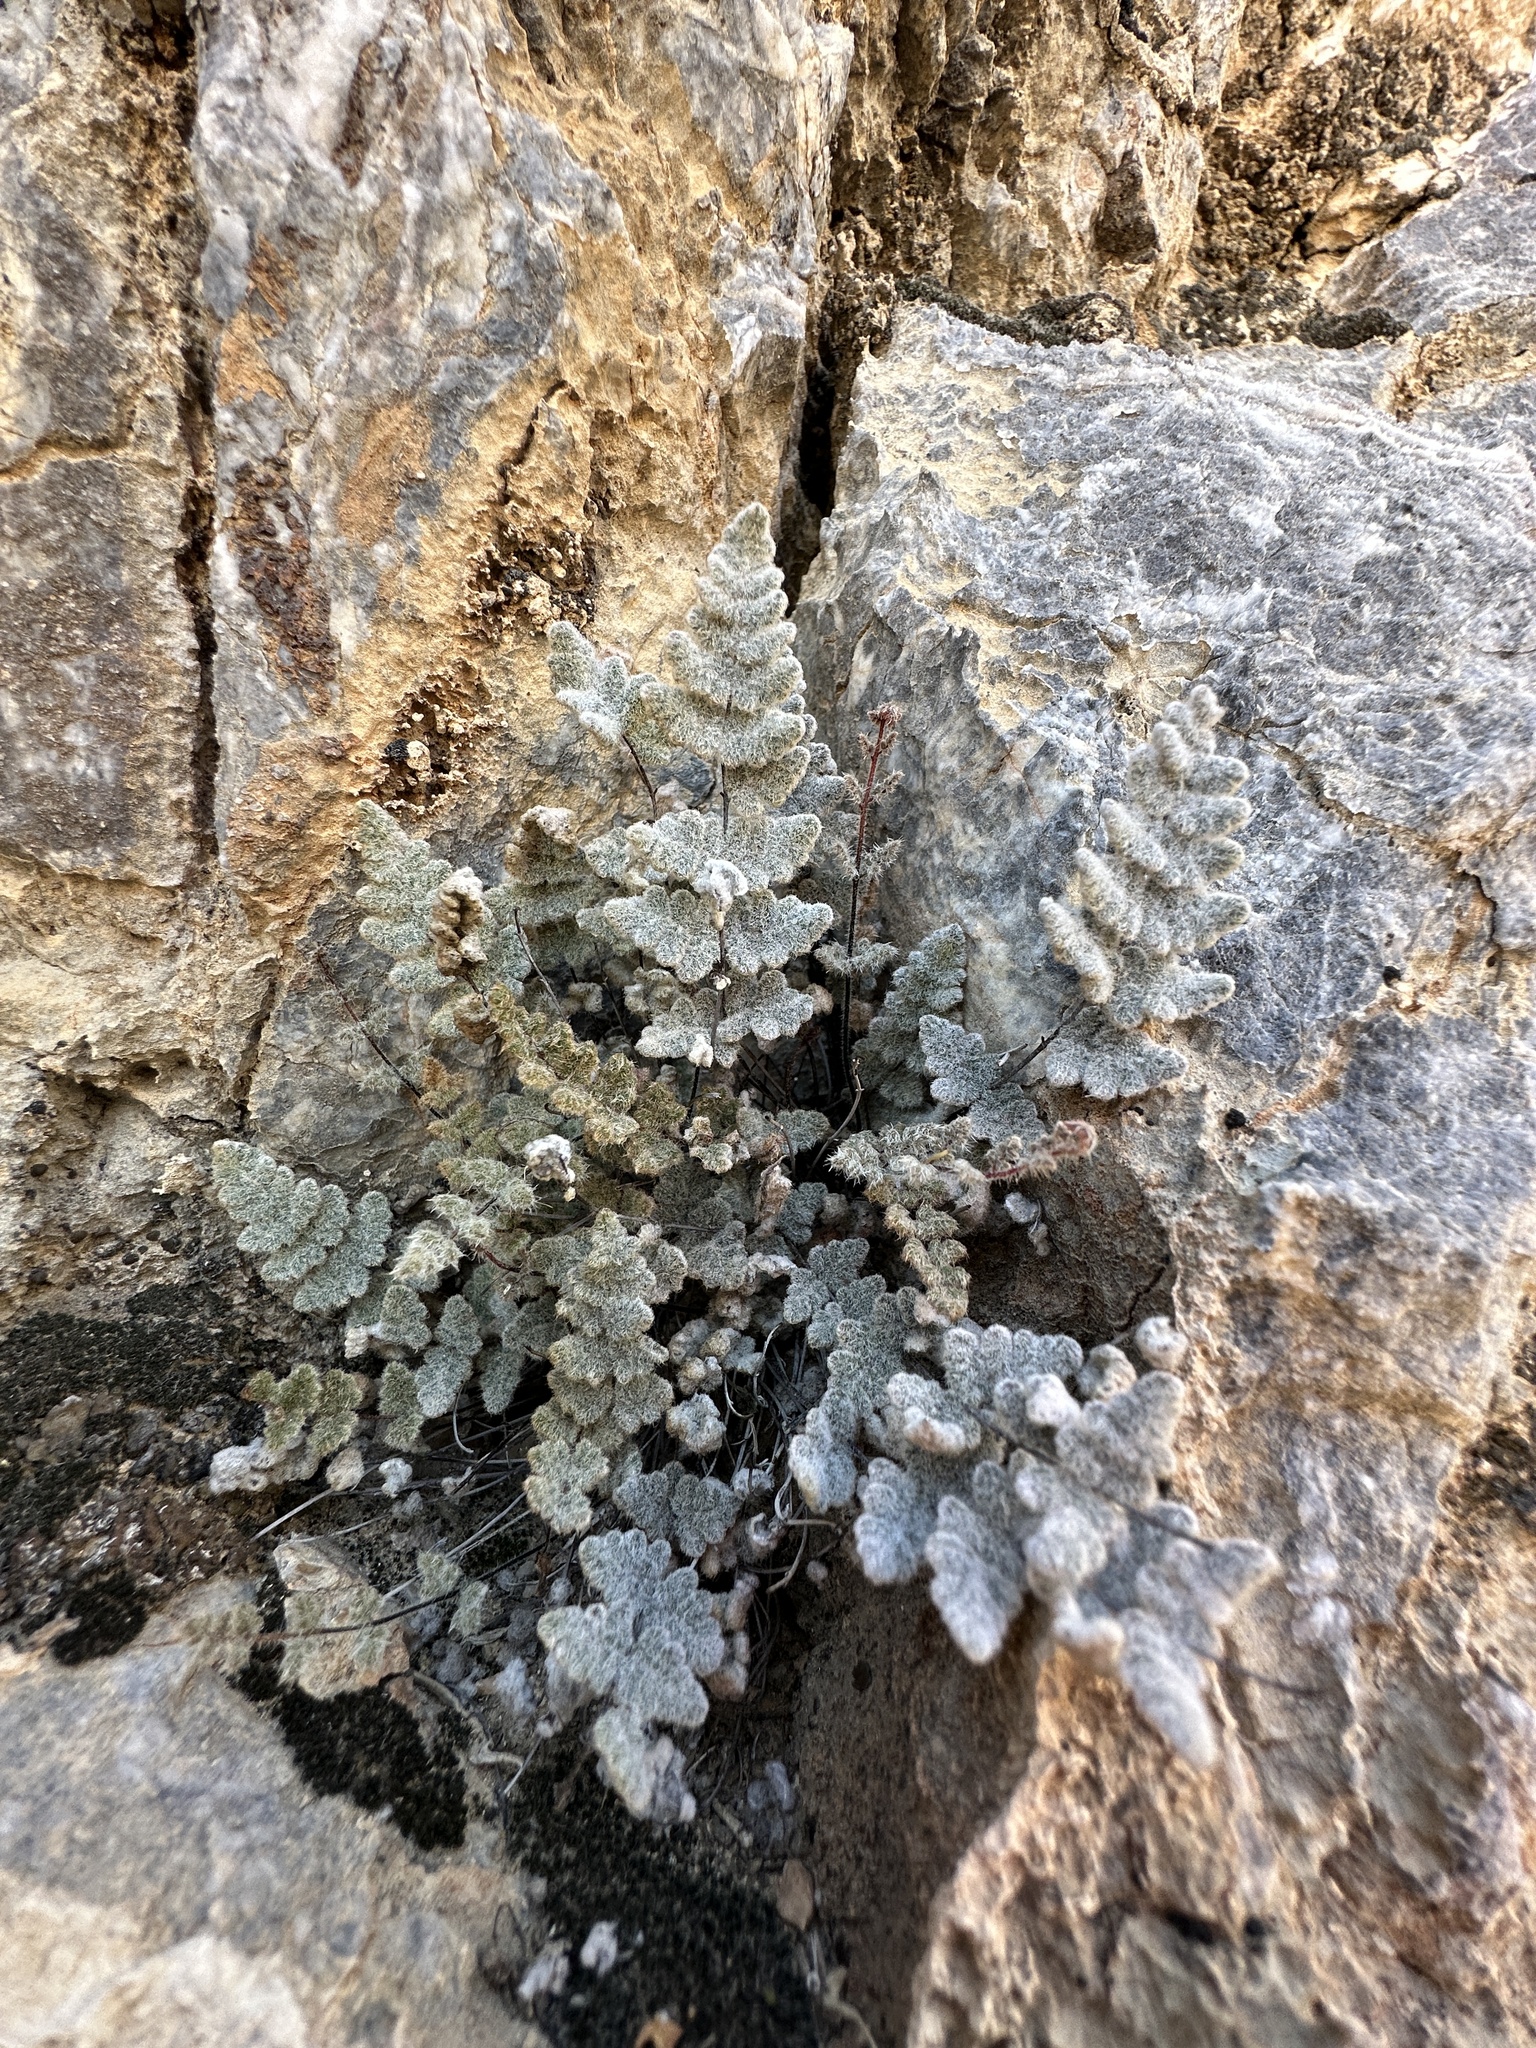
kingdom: Plantae
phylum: Tracheophyta
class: Polypodiopsida
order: Polypodiales
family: Pteridaceae
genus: Myriopteris
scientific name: Myriopteris parryi
